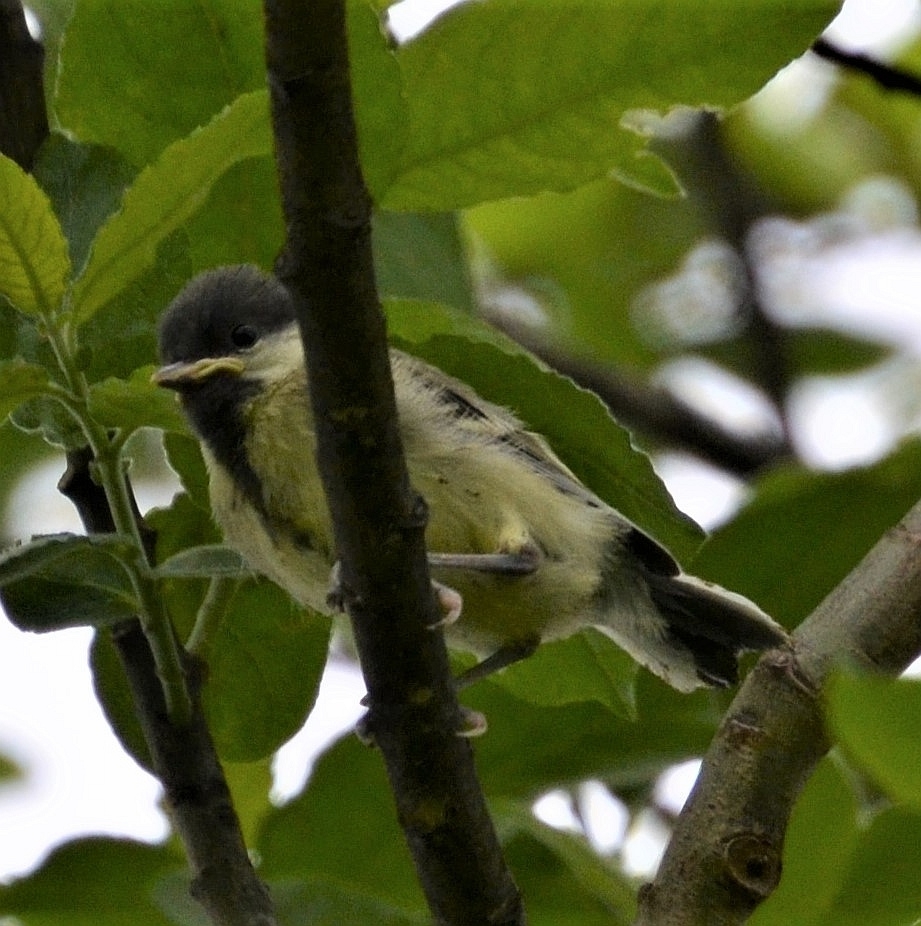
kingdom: Animalia
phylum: Chordata
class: Aves
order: Passeriformes
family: Paridae
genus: Parus
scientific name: Parus major
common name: Great tit
